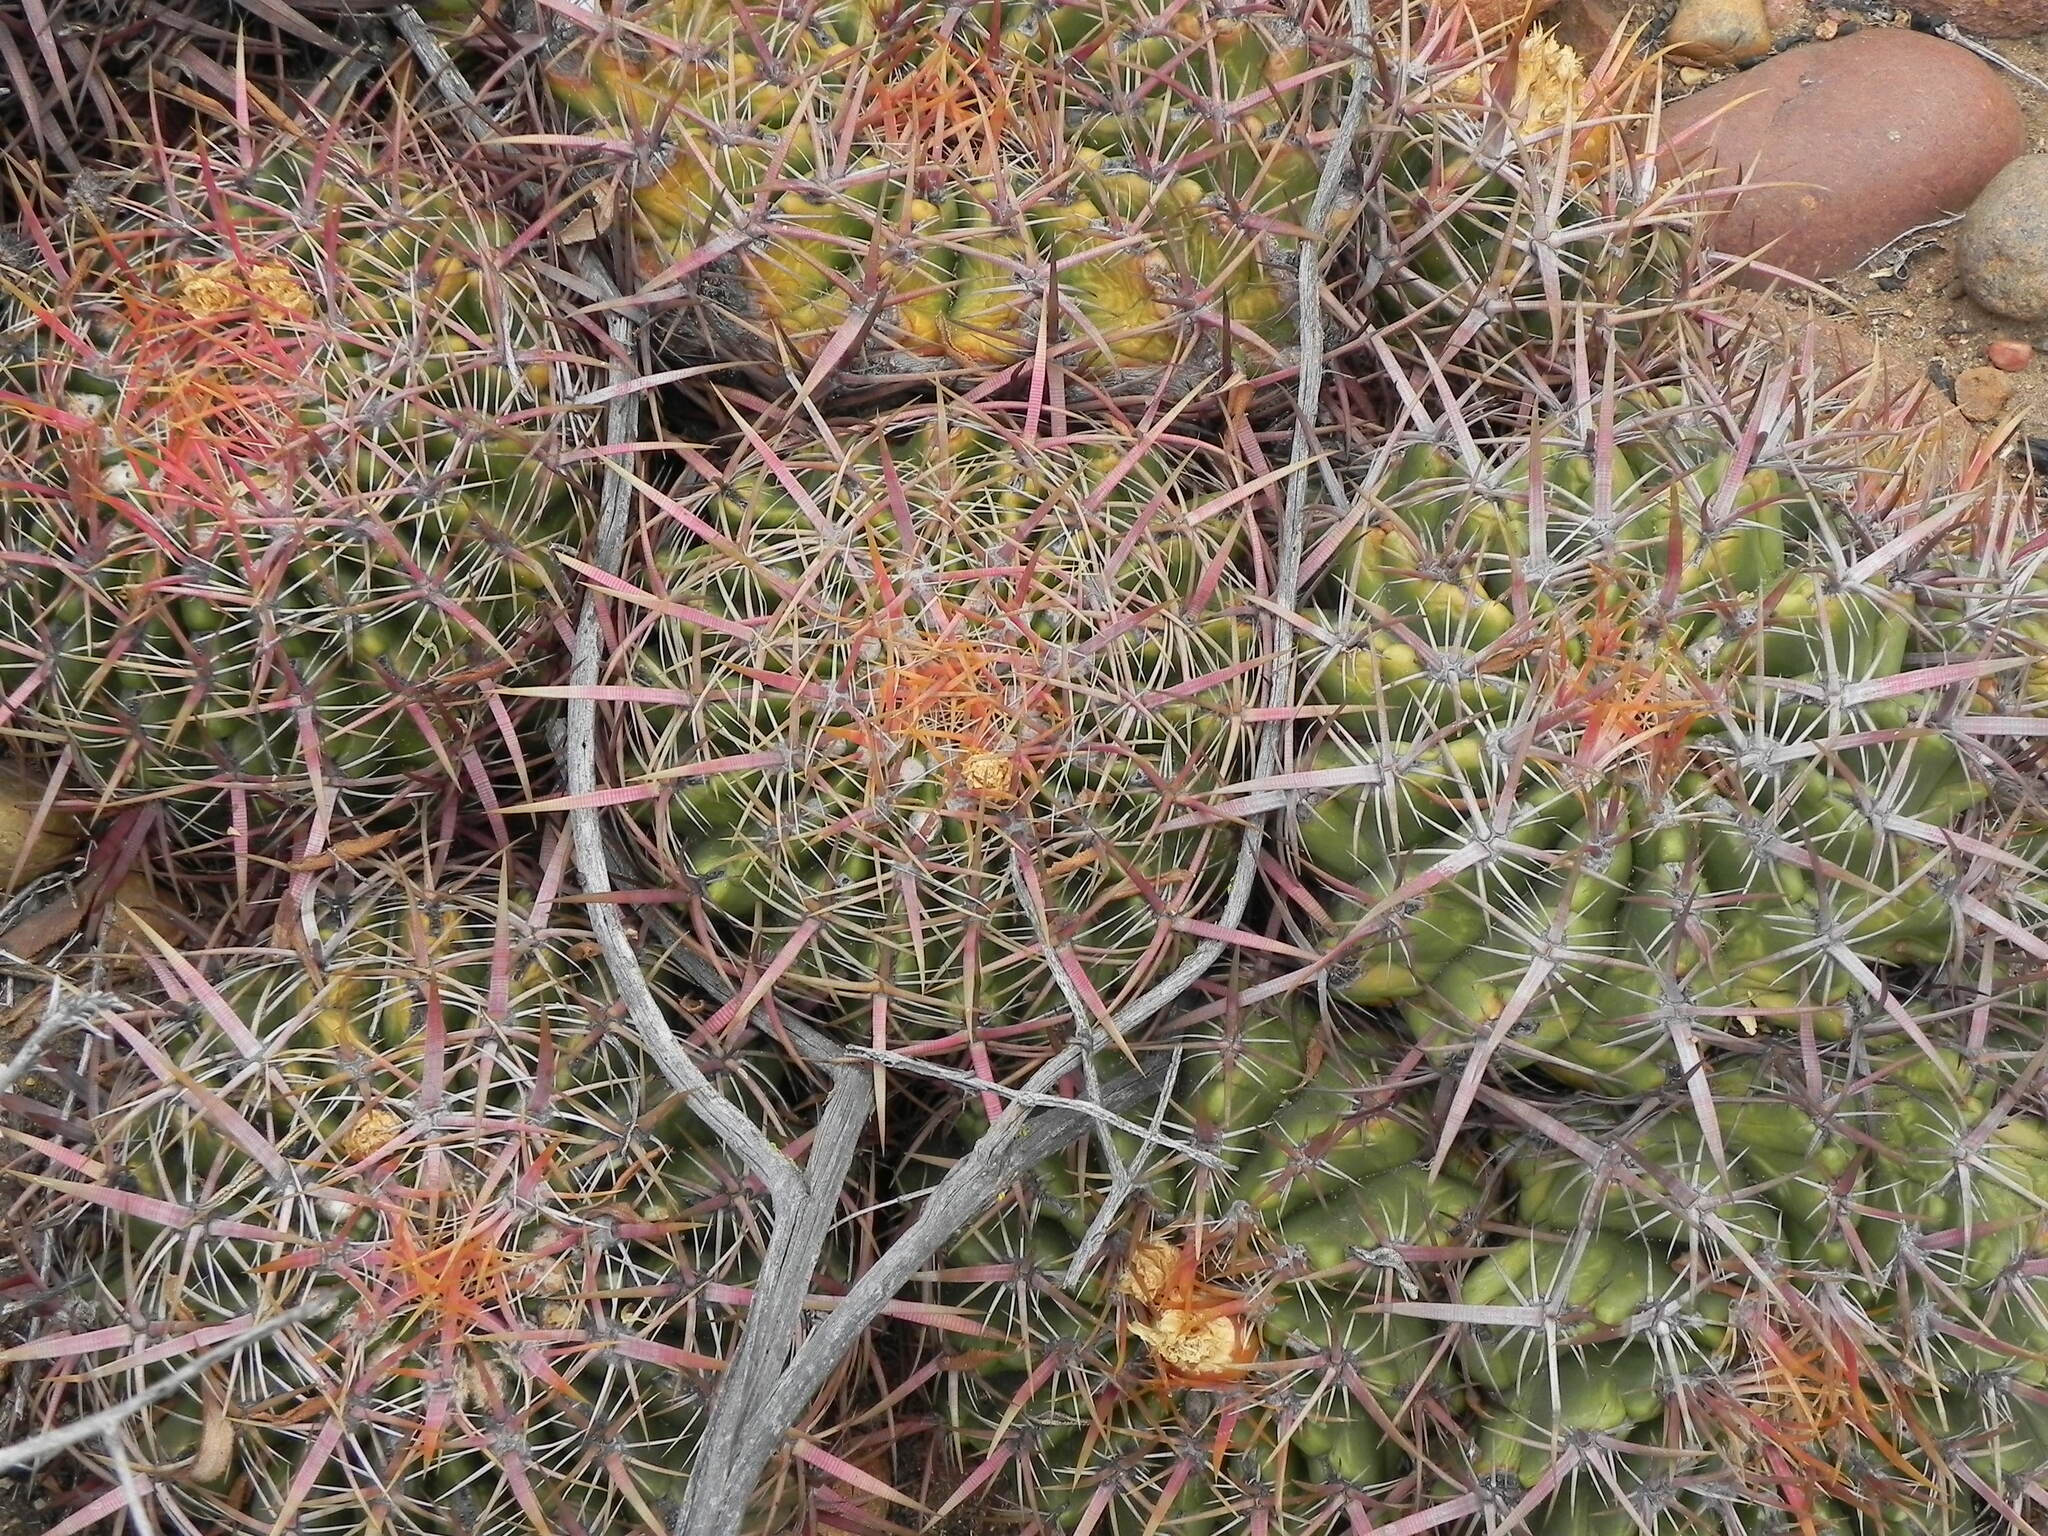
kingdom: Plantae
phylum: Tracheophyta
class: Magnoliopsida
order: Caryophyllales
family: Cactaceae
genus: Ferocactus
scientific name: Ferocactus viridescens
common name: San diego barrel cactus
